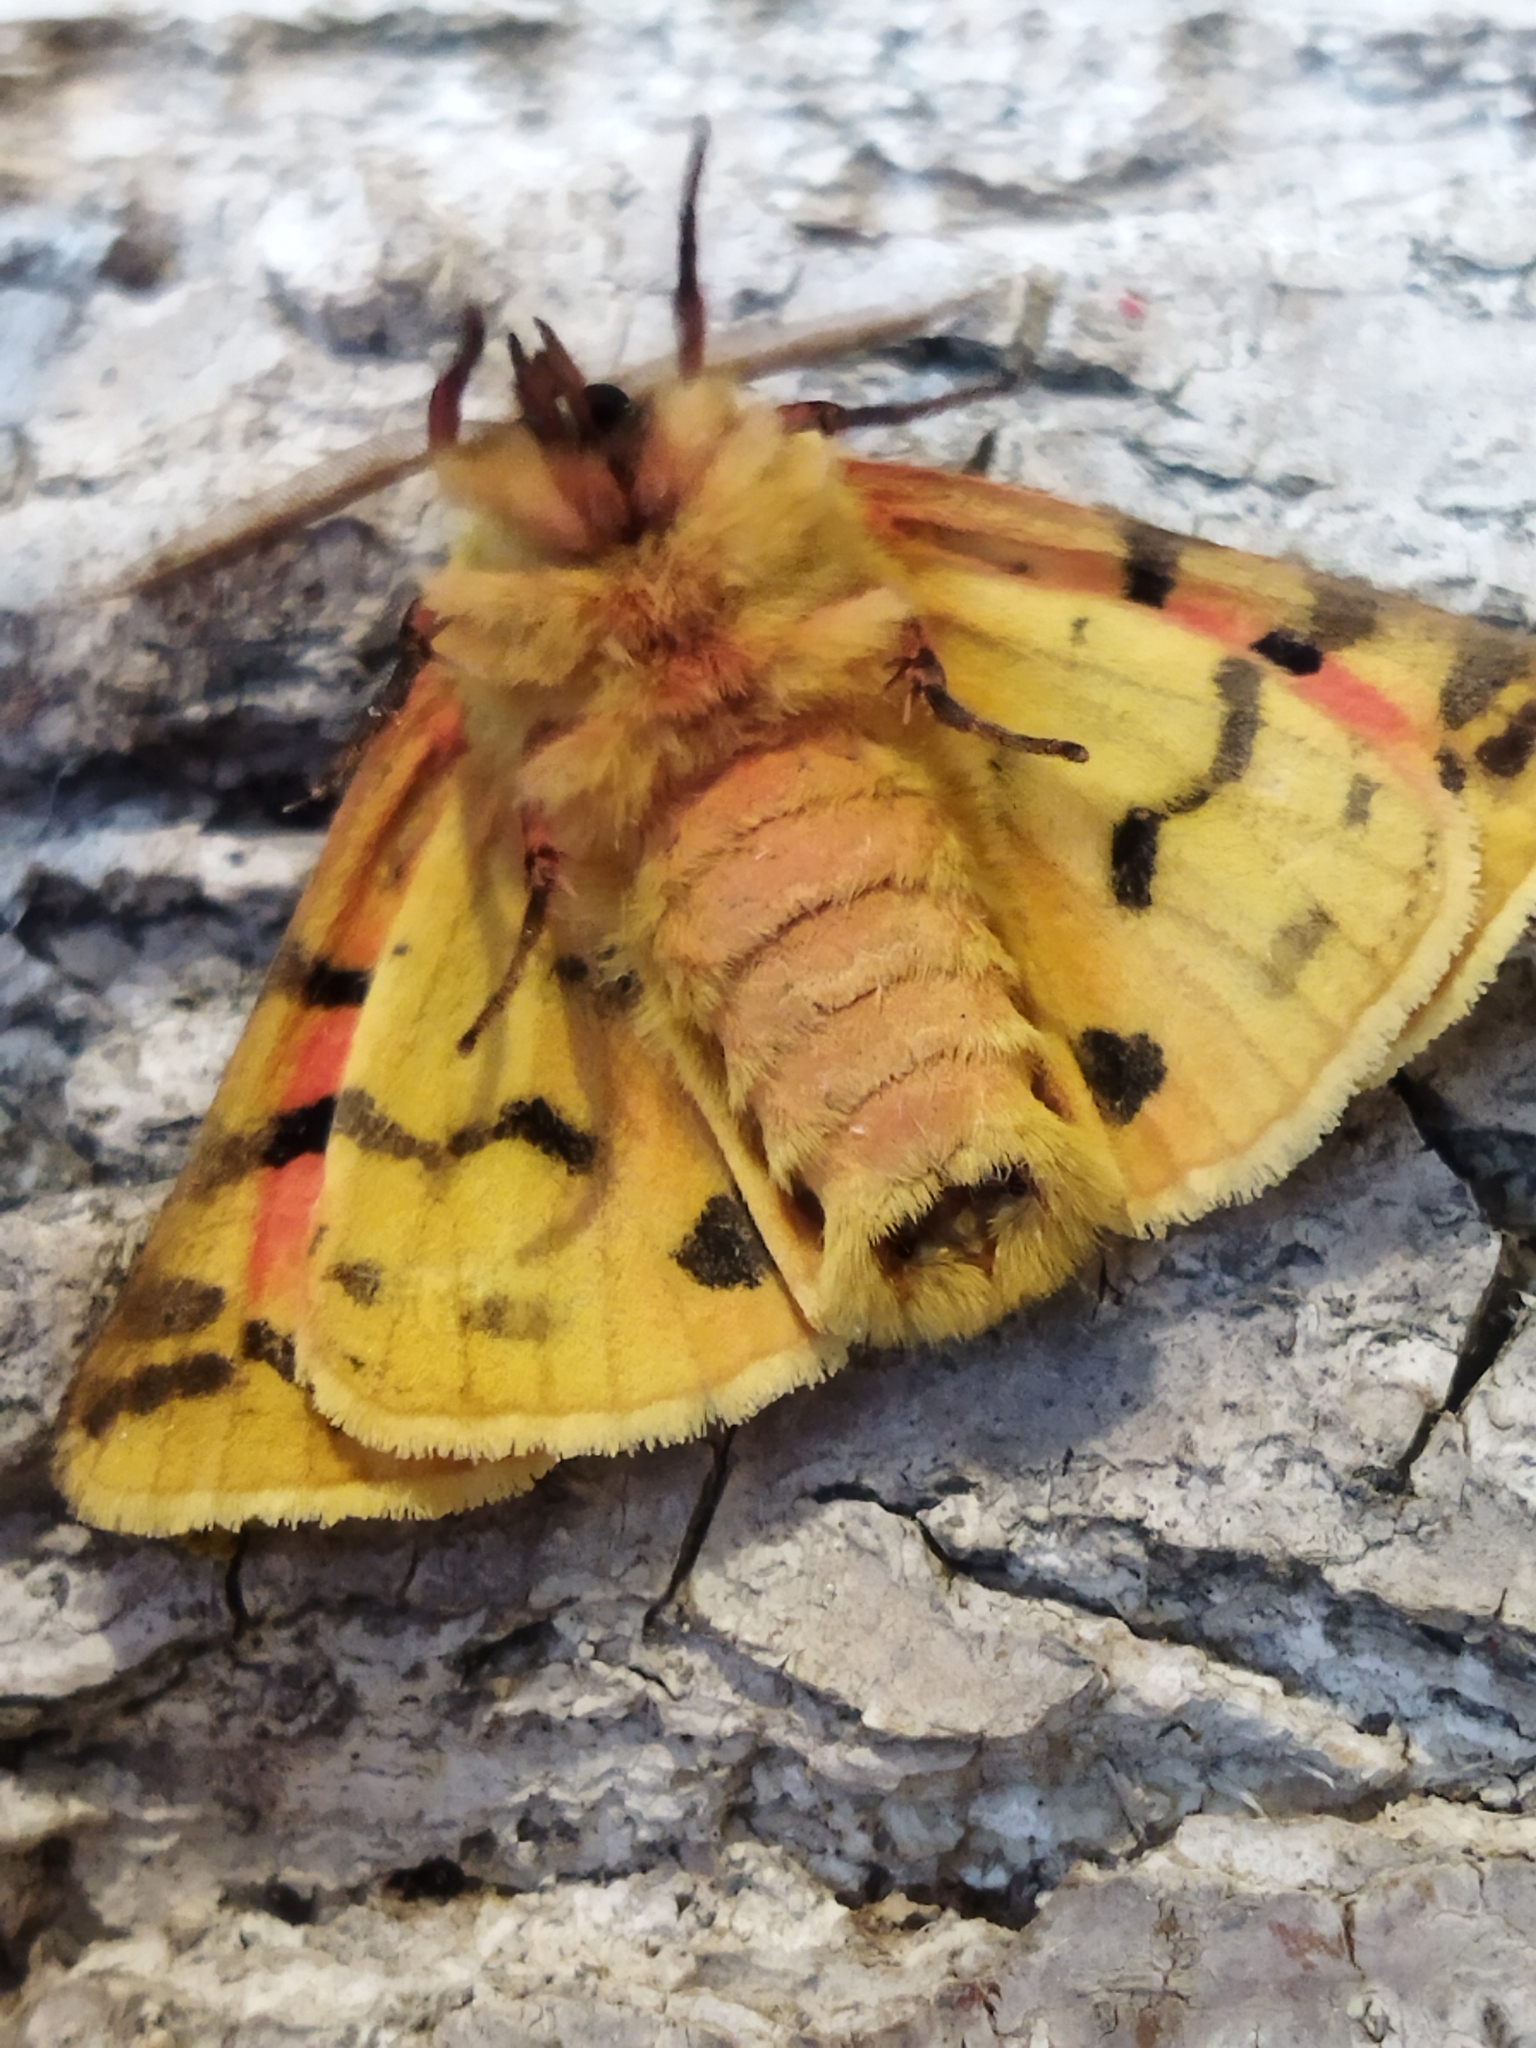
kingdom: Animalia
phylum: Arthropoda
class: Insecta
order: Lepidoptera
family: Erebidae
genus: Rhyparia
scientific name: Rhyparia purpurata
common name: Purple tiger
